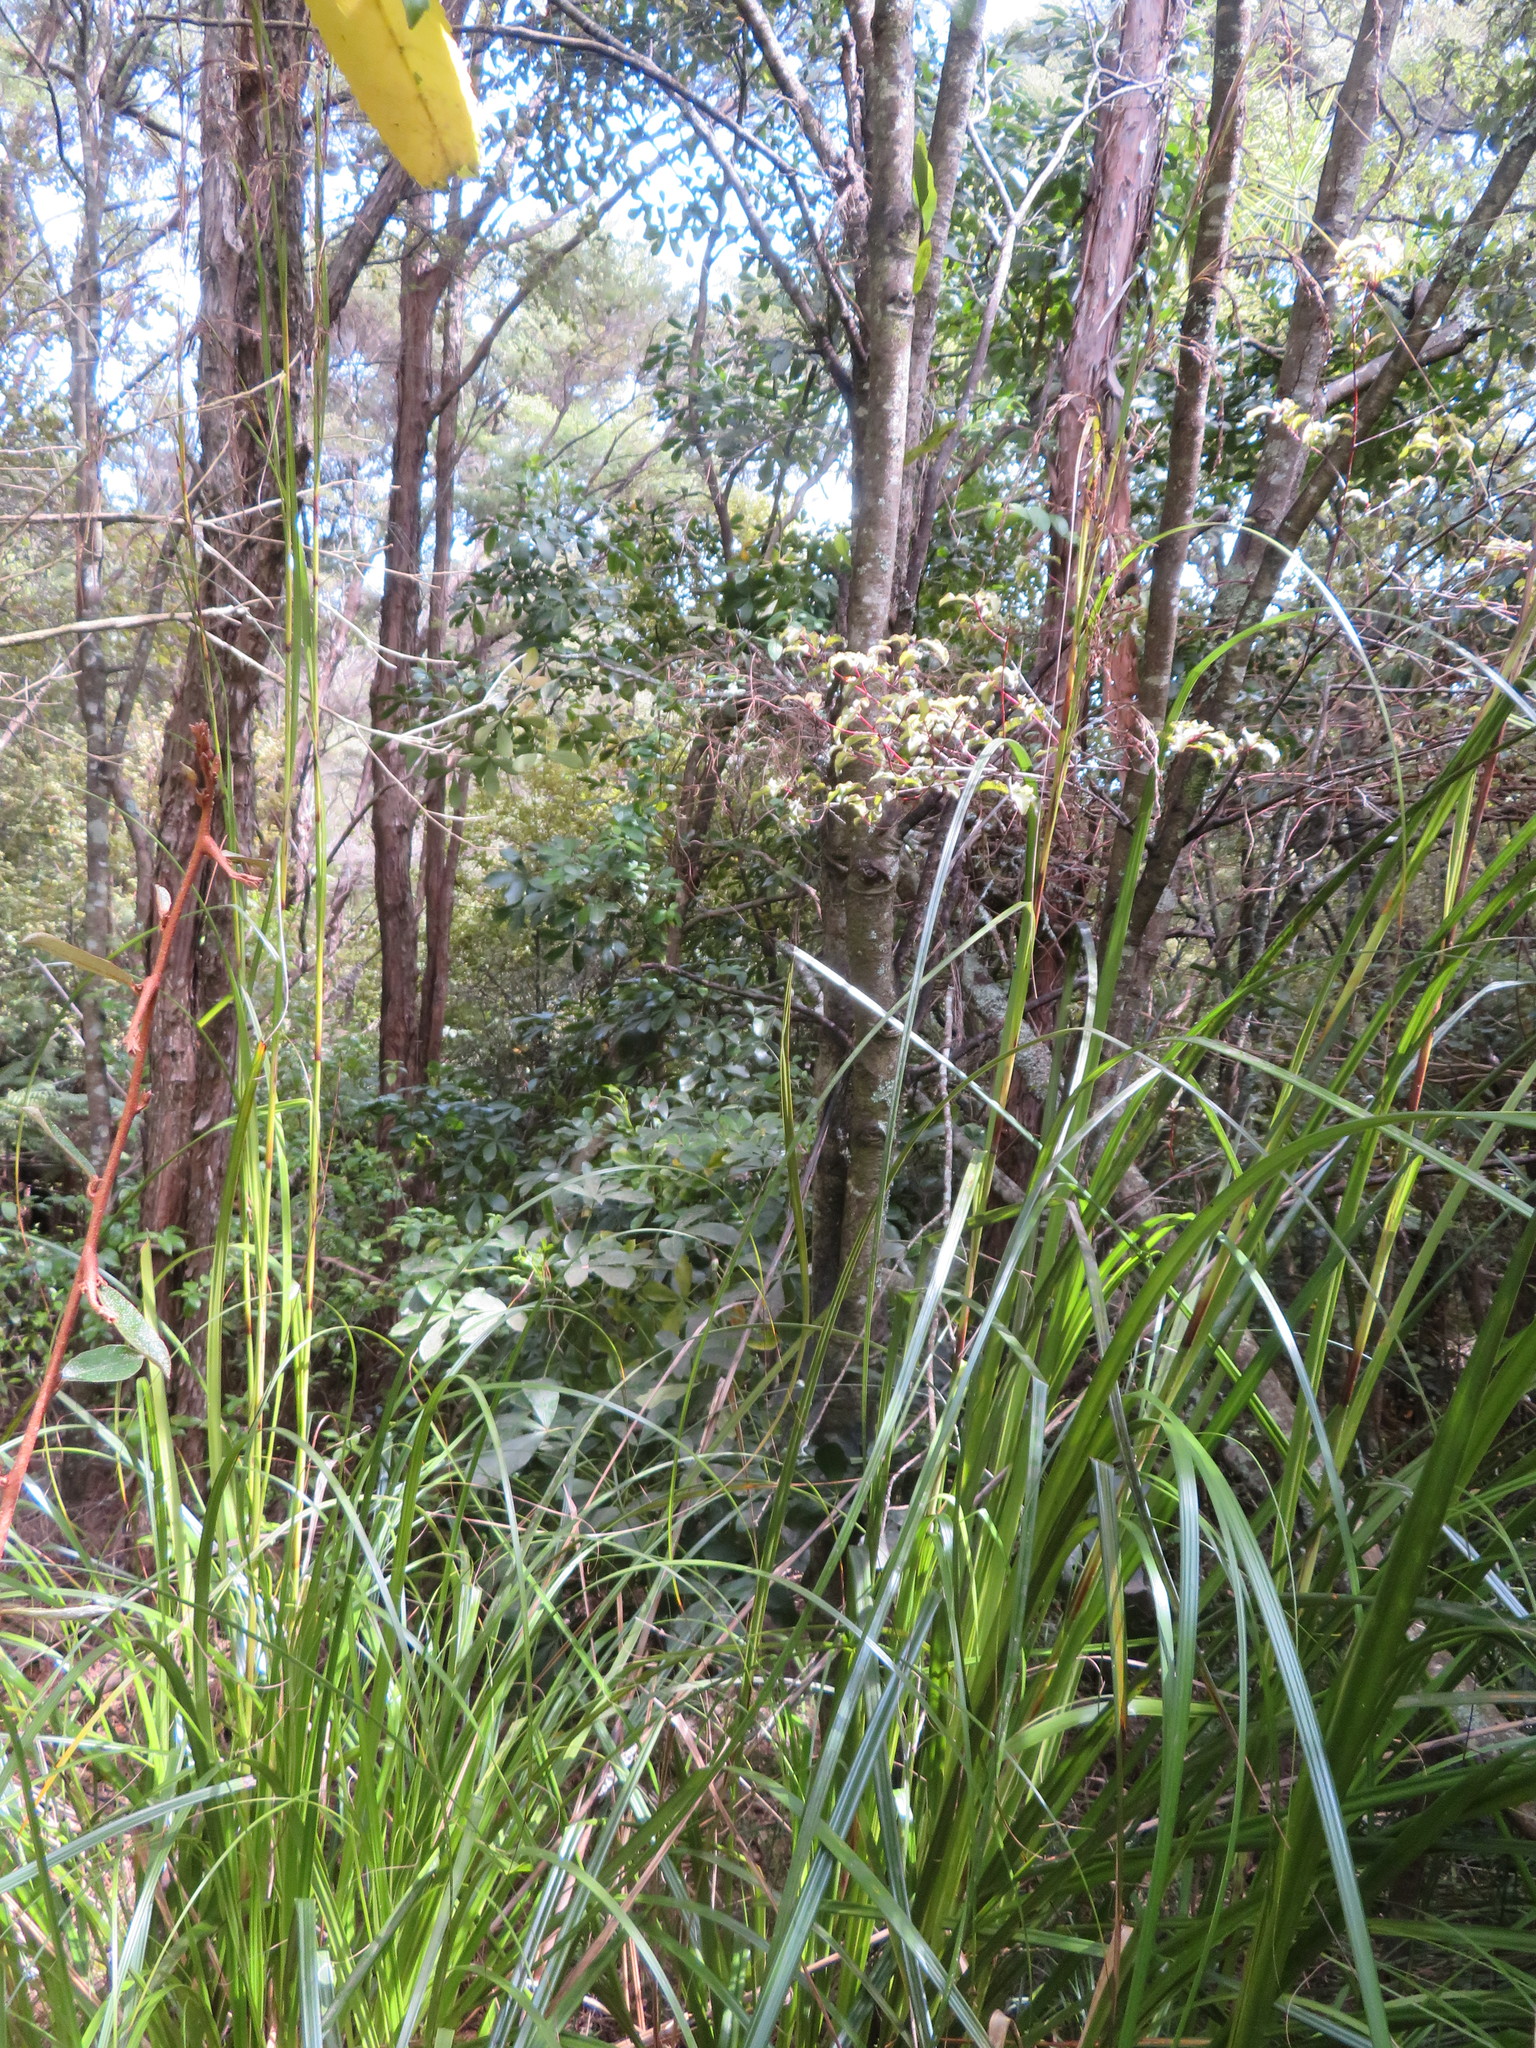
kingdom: Plantae
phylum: Tracheophyta
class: Magnoliopsida
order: Apiales
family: Araliaceae
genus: Pseudopanax
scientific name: Pseudopanax lessonii
